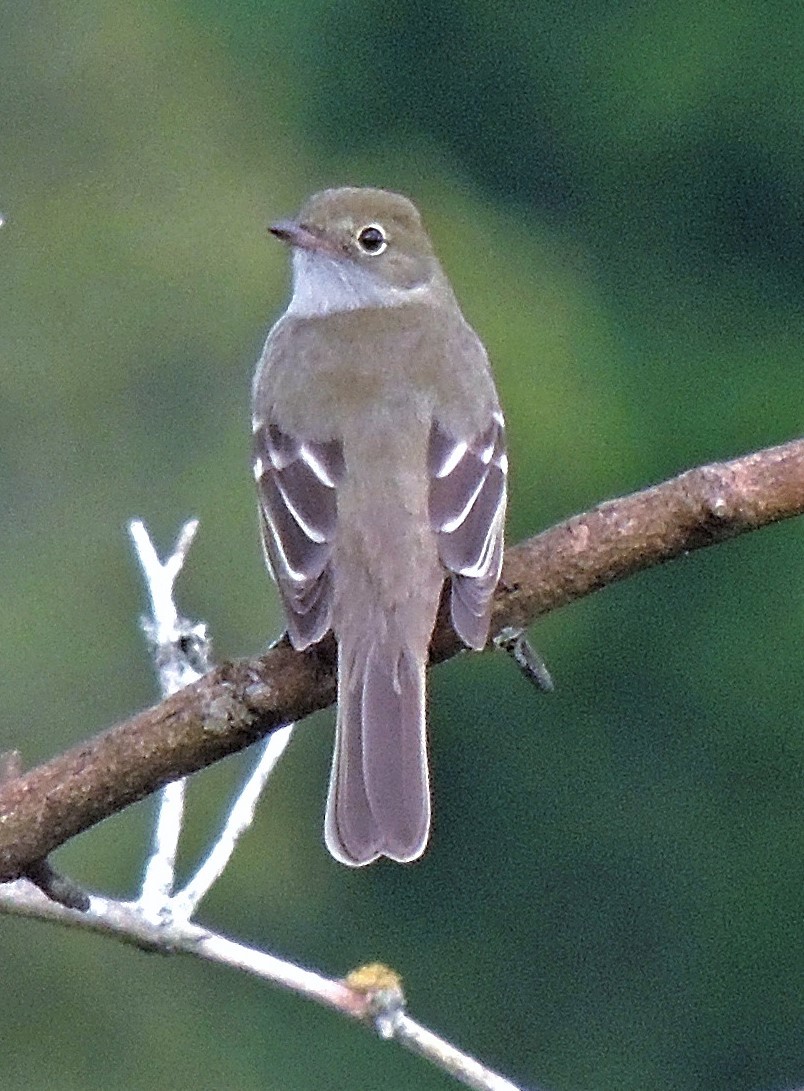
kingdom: Animalia
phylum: Chordata
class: Aves
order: Passeriformes
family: Tyrannidae
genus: Elaenia
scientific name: Elaenia parvirostris
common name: Small-billed elaenia
